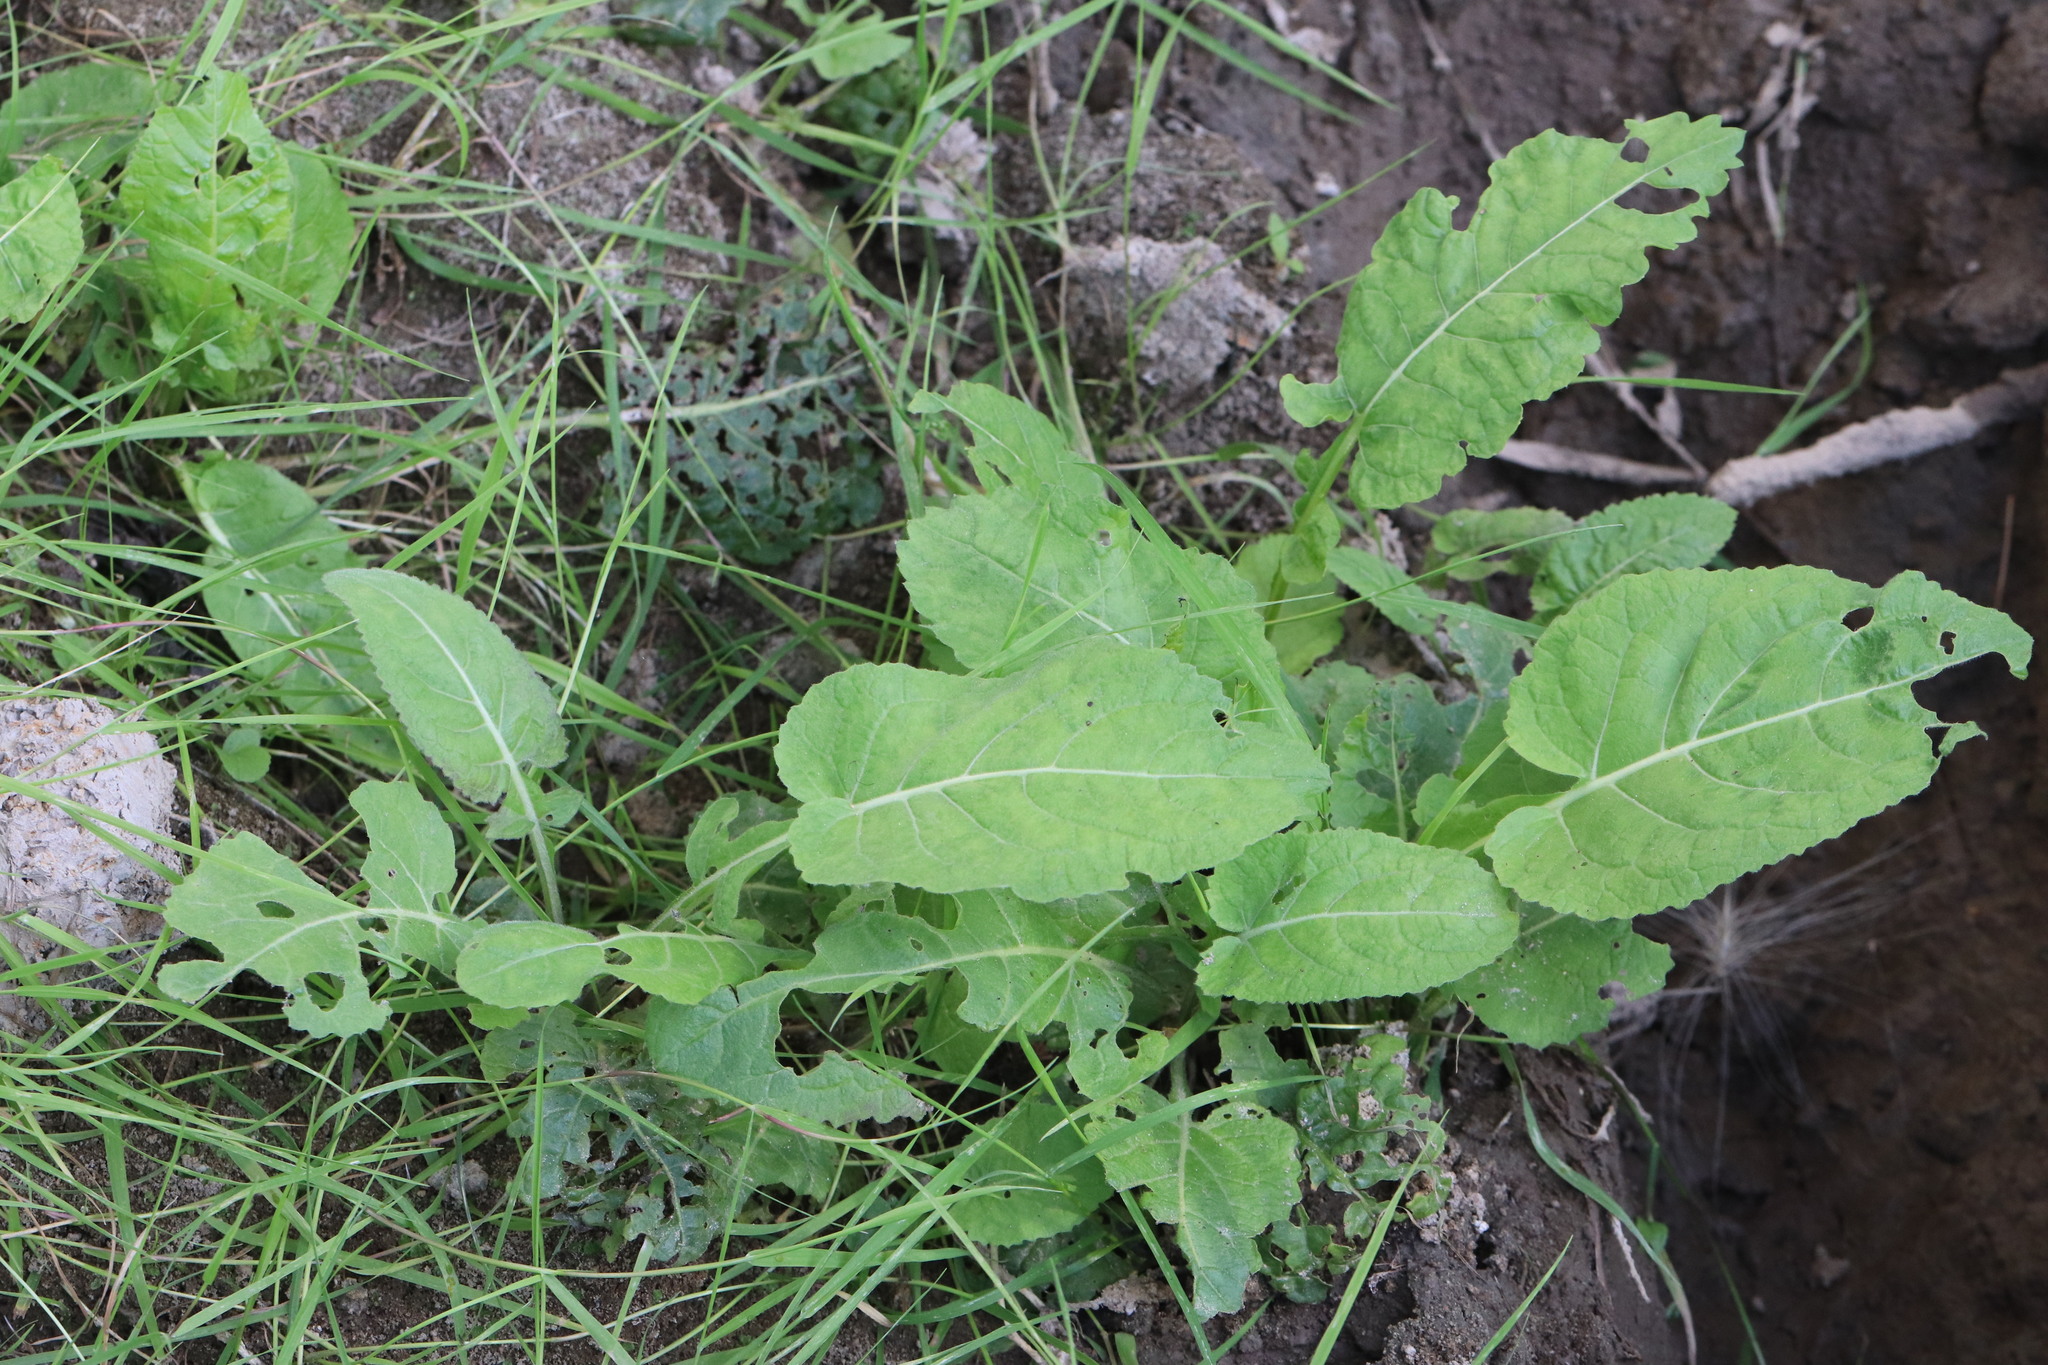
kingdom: Plantae
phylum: Tracheophyta
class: Magnoliopsida
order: Brassicales
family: Brassicaceae
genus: Rorippa
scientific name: Rorippa amphibia
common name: Great yellow-cress
